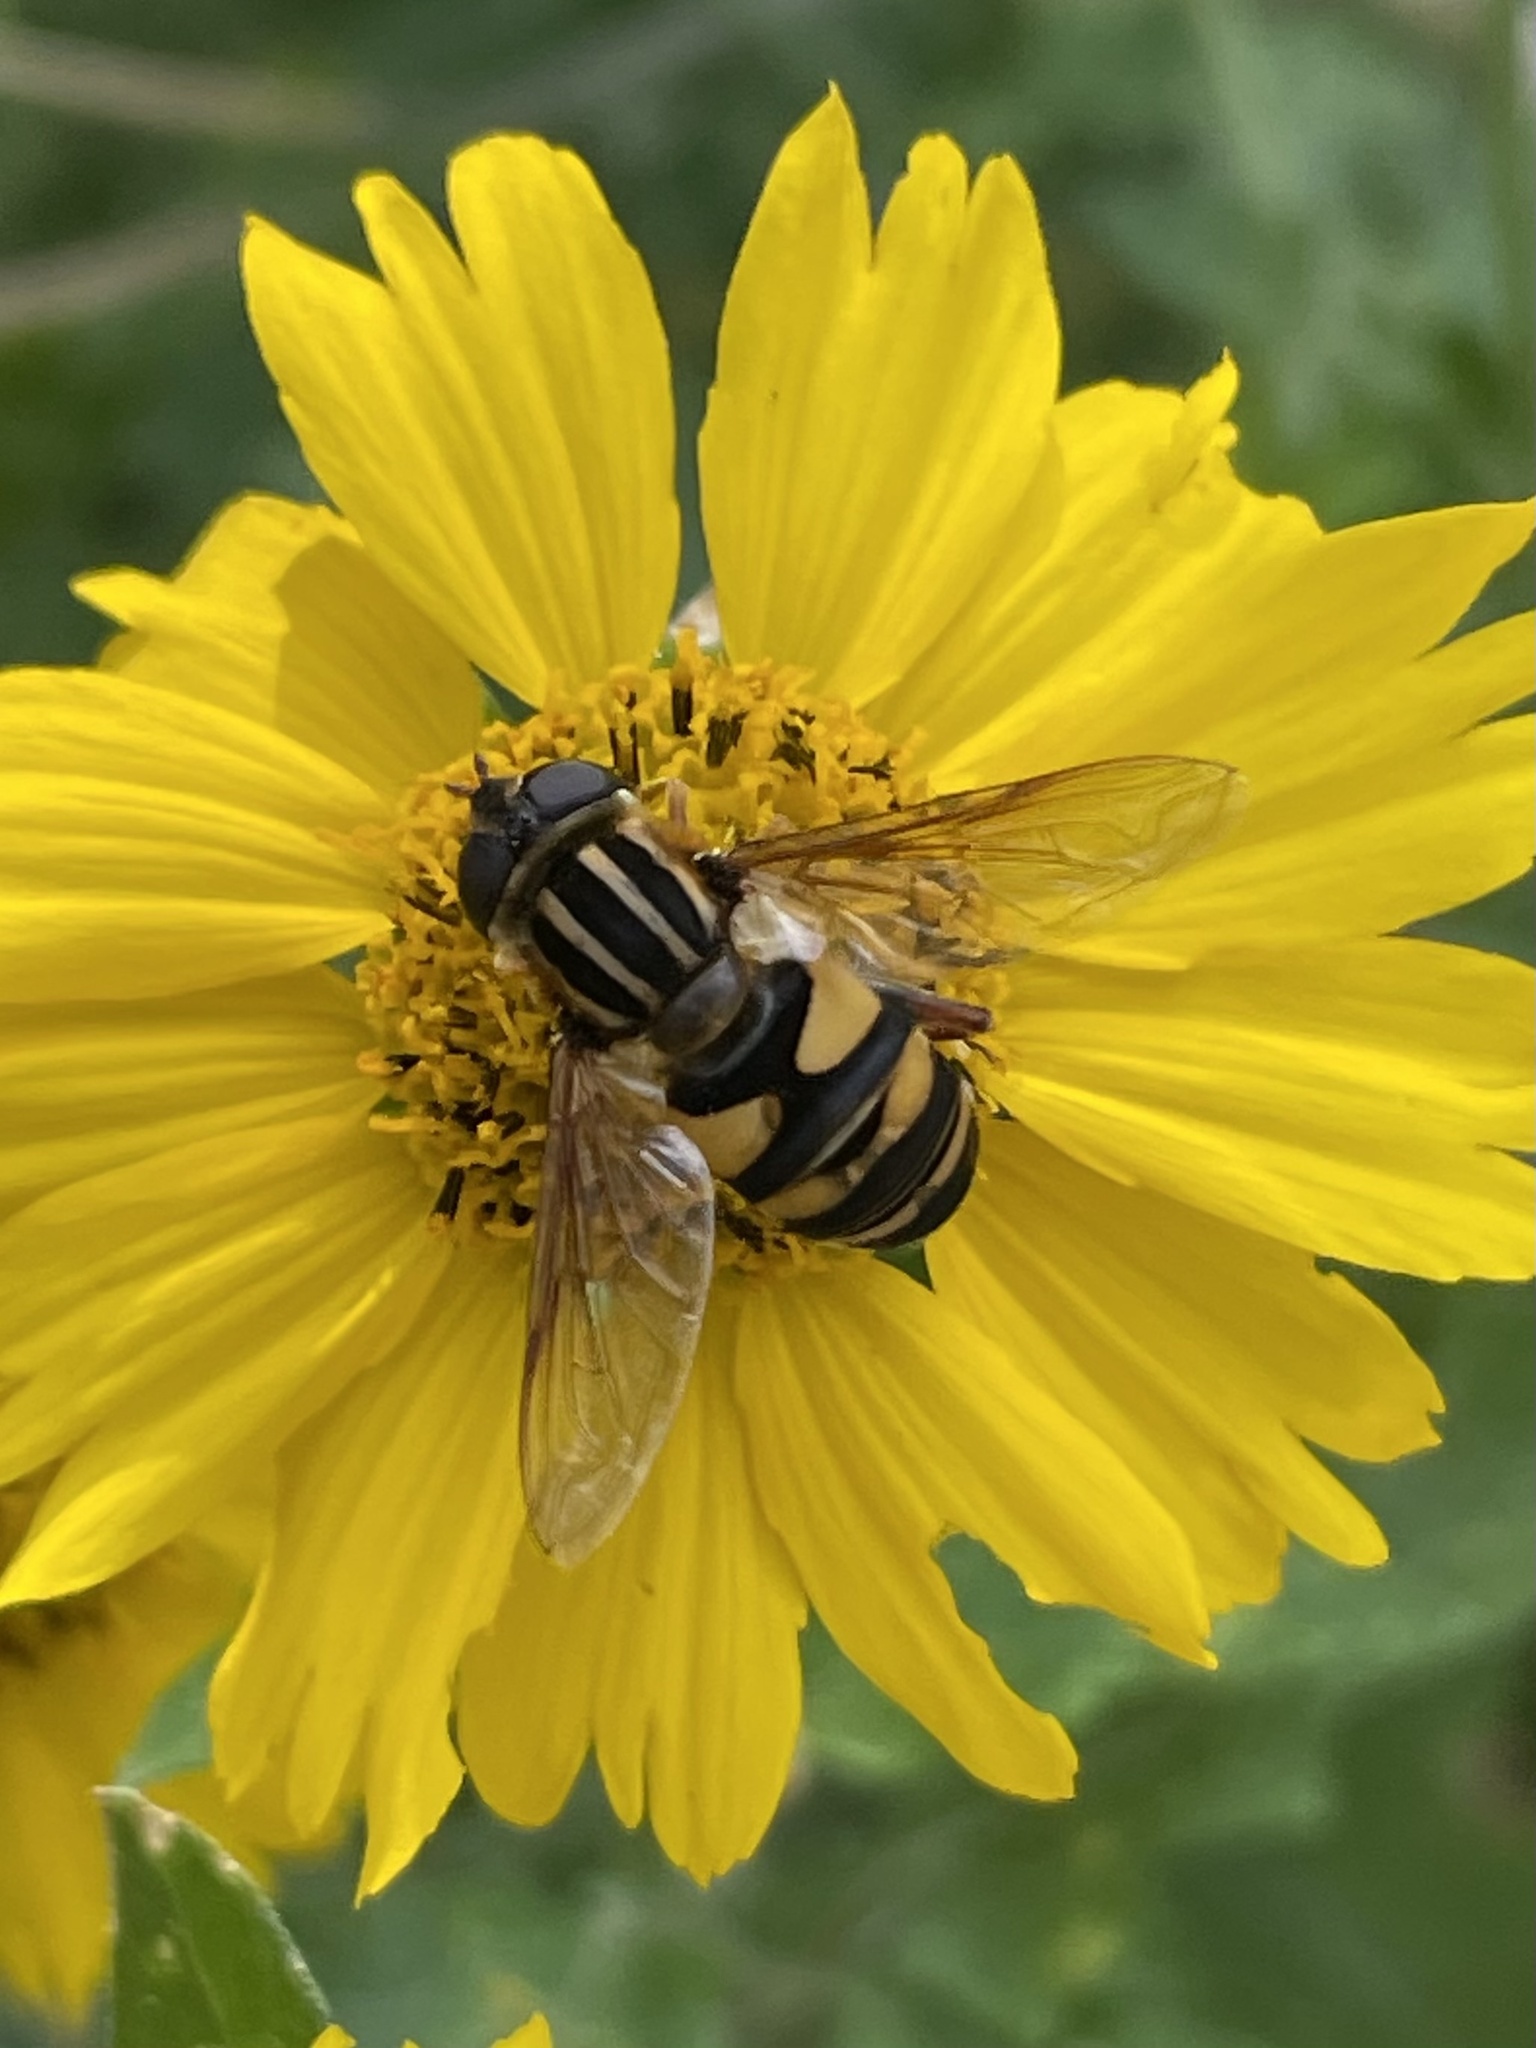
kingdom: Animalia
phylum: Arthropoda
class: Insecta
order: Diptera
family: Syrphidae
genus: Helophilus
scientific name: Helophilus fasciatus
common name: Narrow-headed marsh fly
